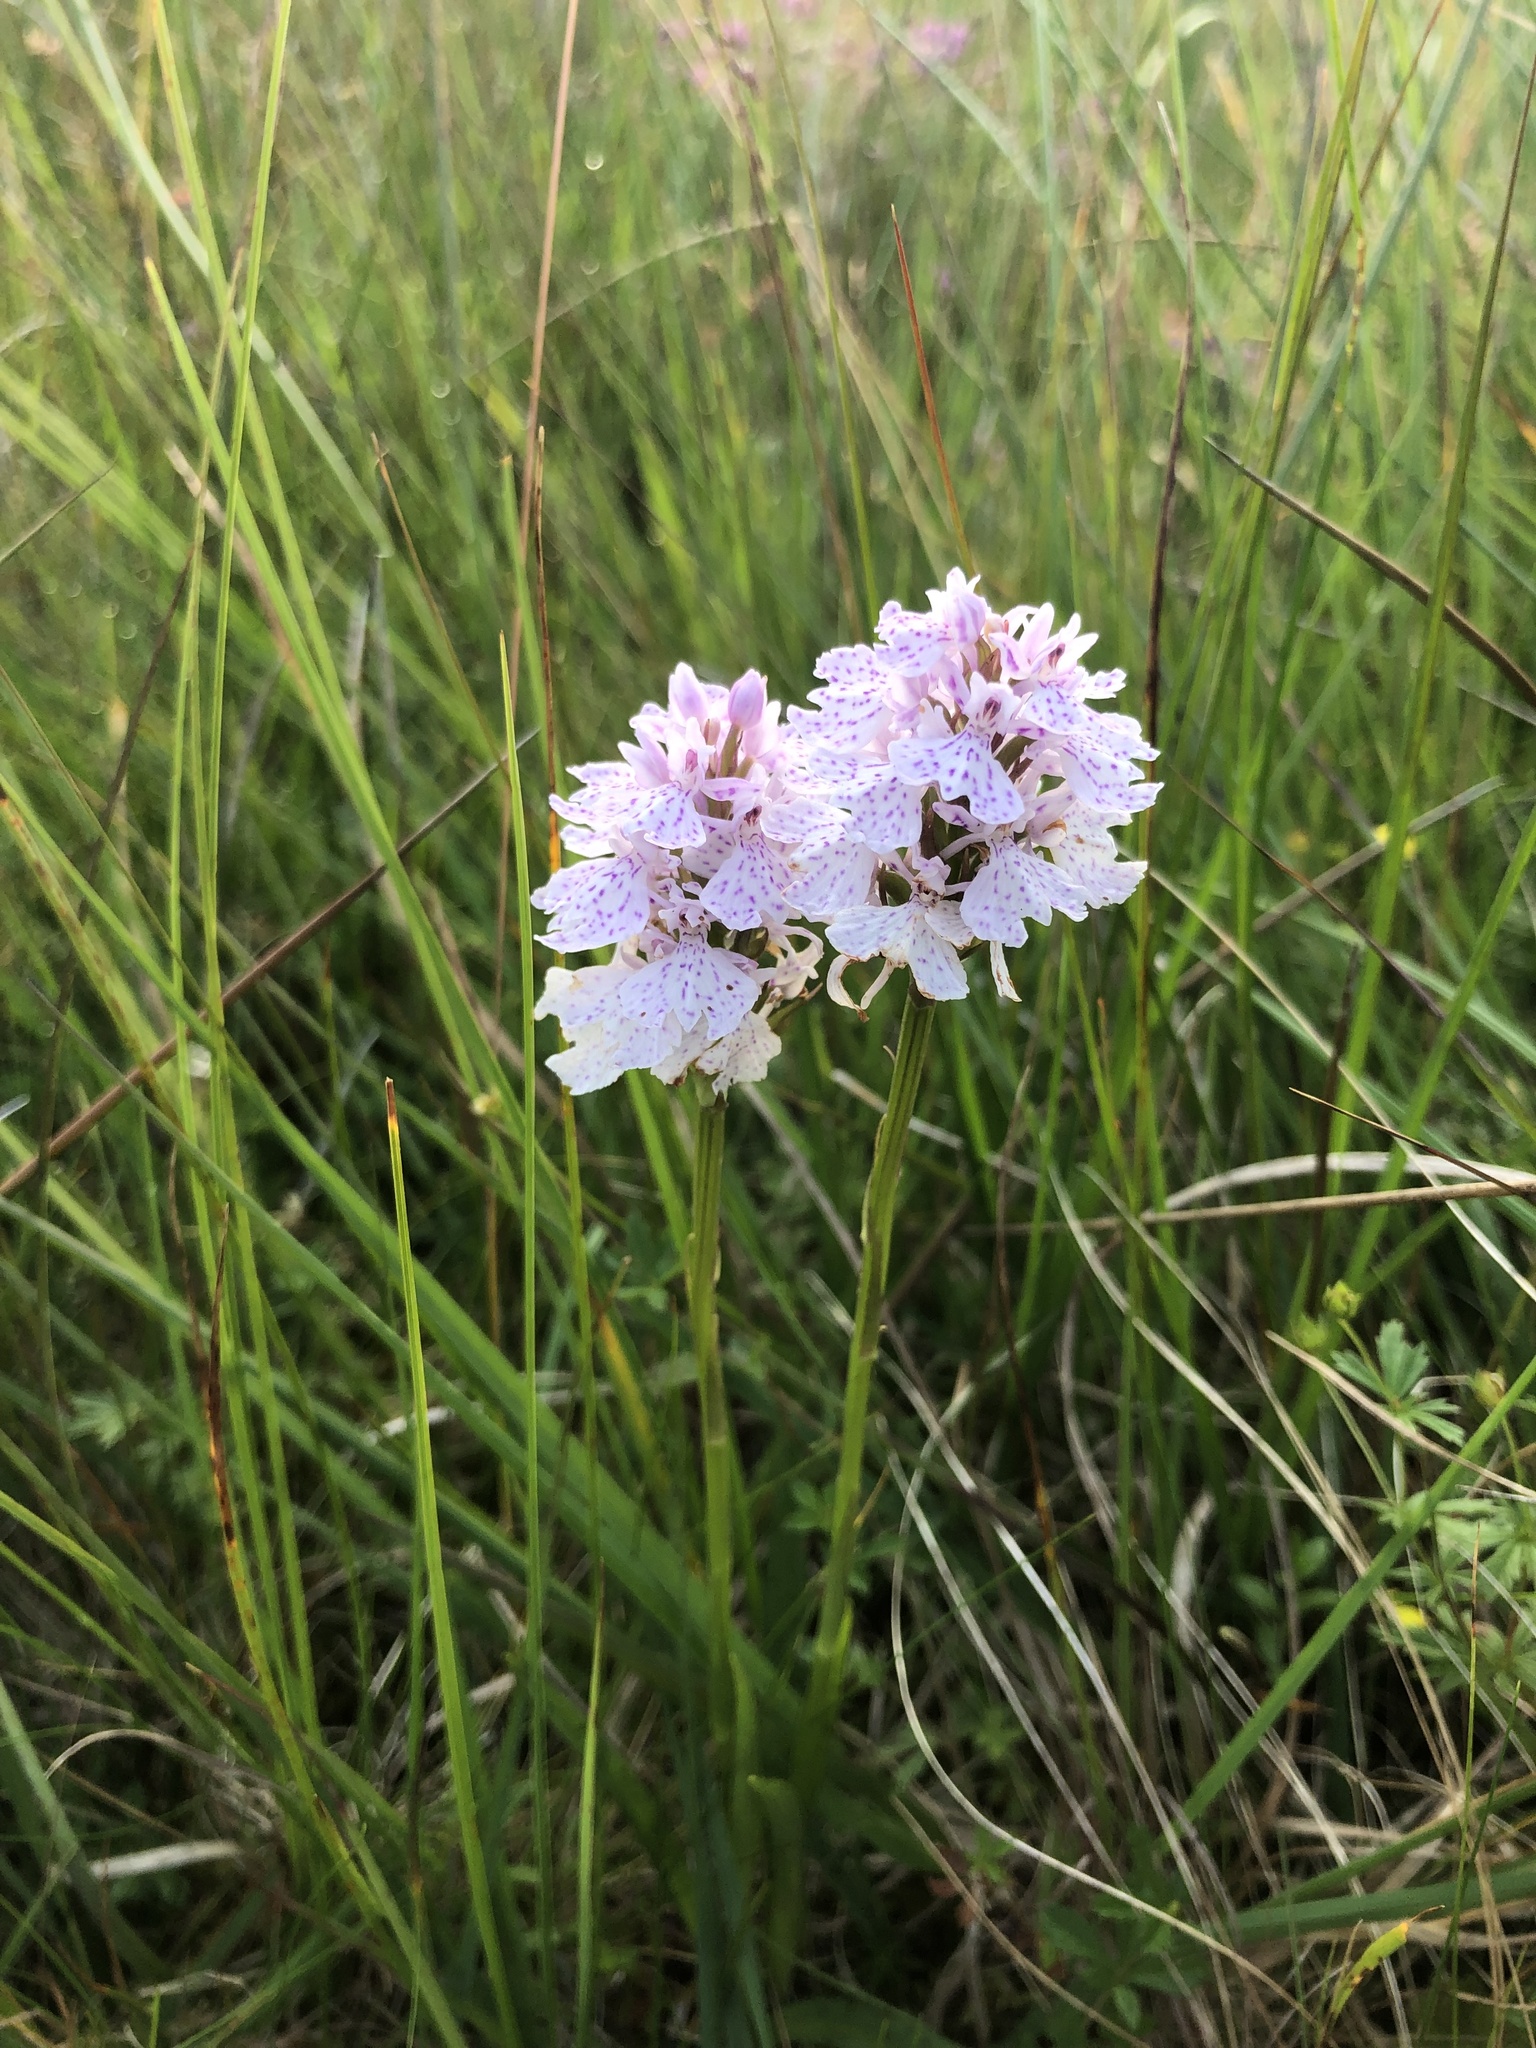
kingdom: Plantae
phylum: Tracheophyta
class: Liliopsida
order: Asparagales
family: Orchidaceae
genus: Dactylorhiza
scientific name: Dactylorhiza maculata
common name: Heath spotted-orchid
